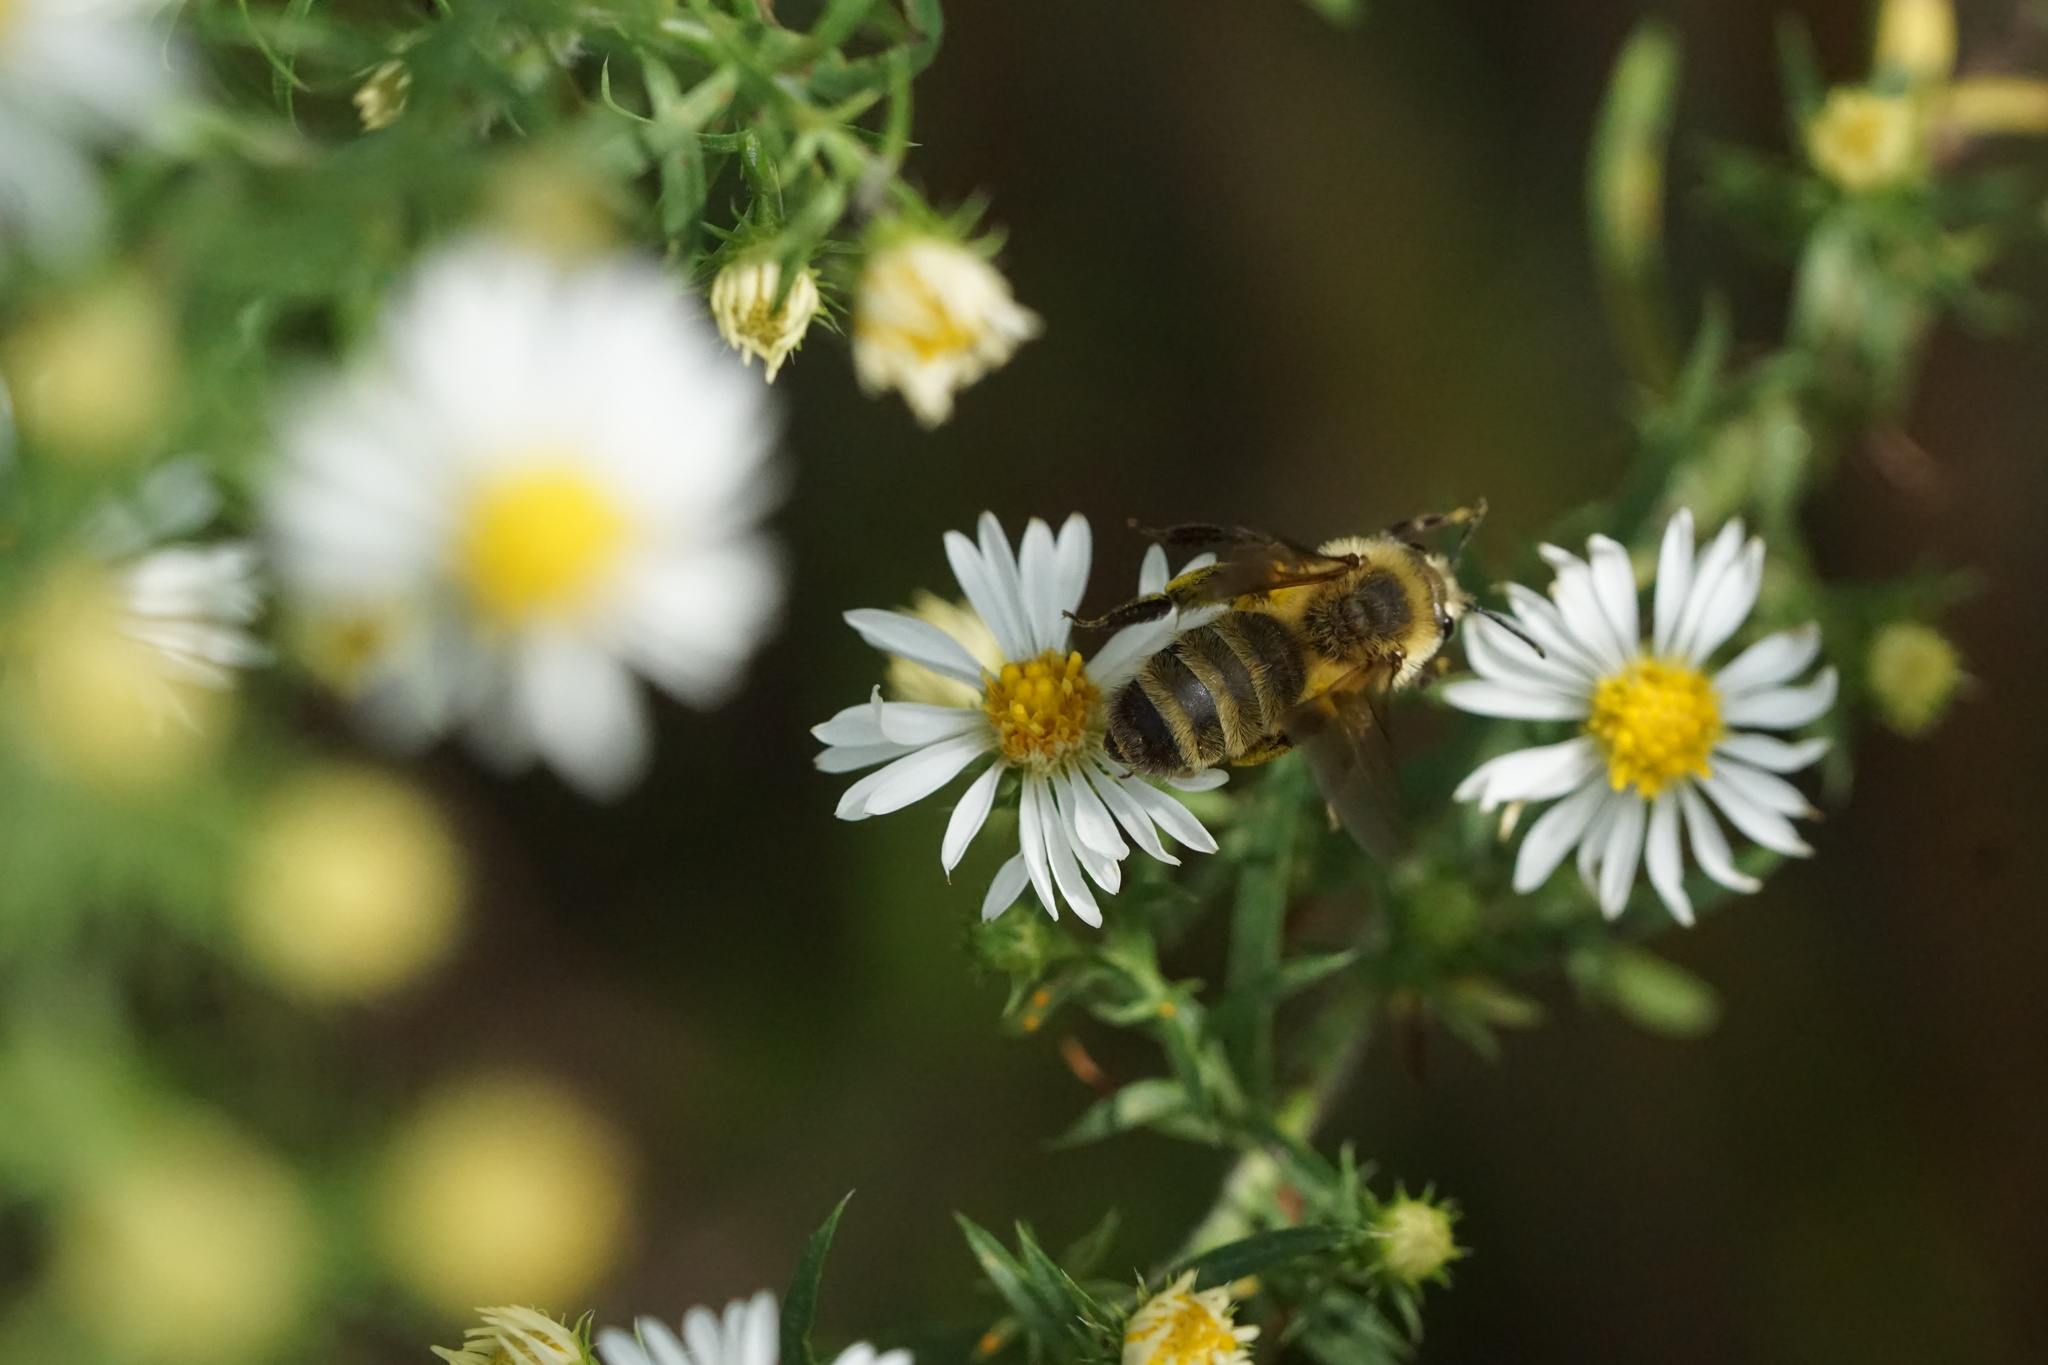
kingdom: Animalia
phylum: Arthropoda
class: Insecta
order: Hymenoptera
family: Andrenidae
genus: Andrena
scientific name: Andrena hirticincta
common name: Hairy-banded mining bee
